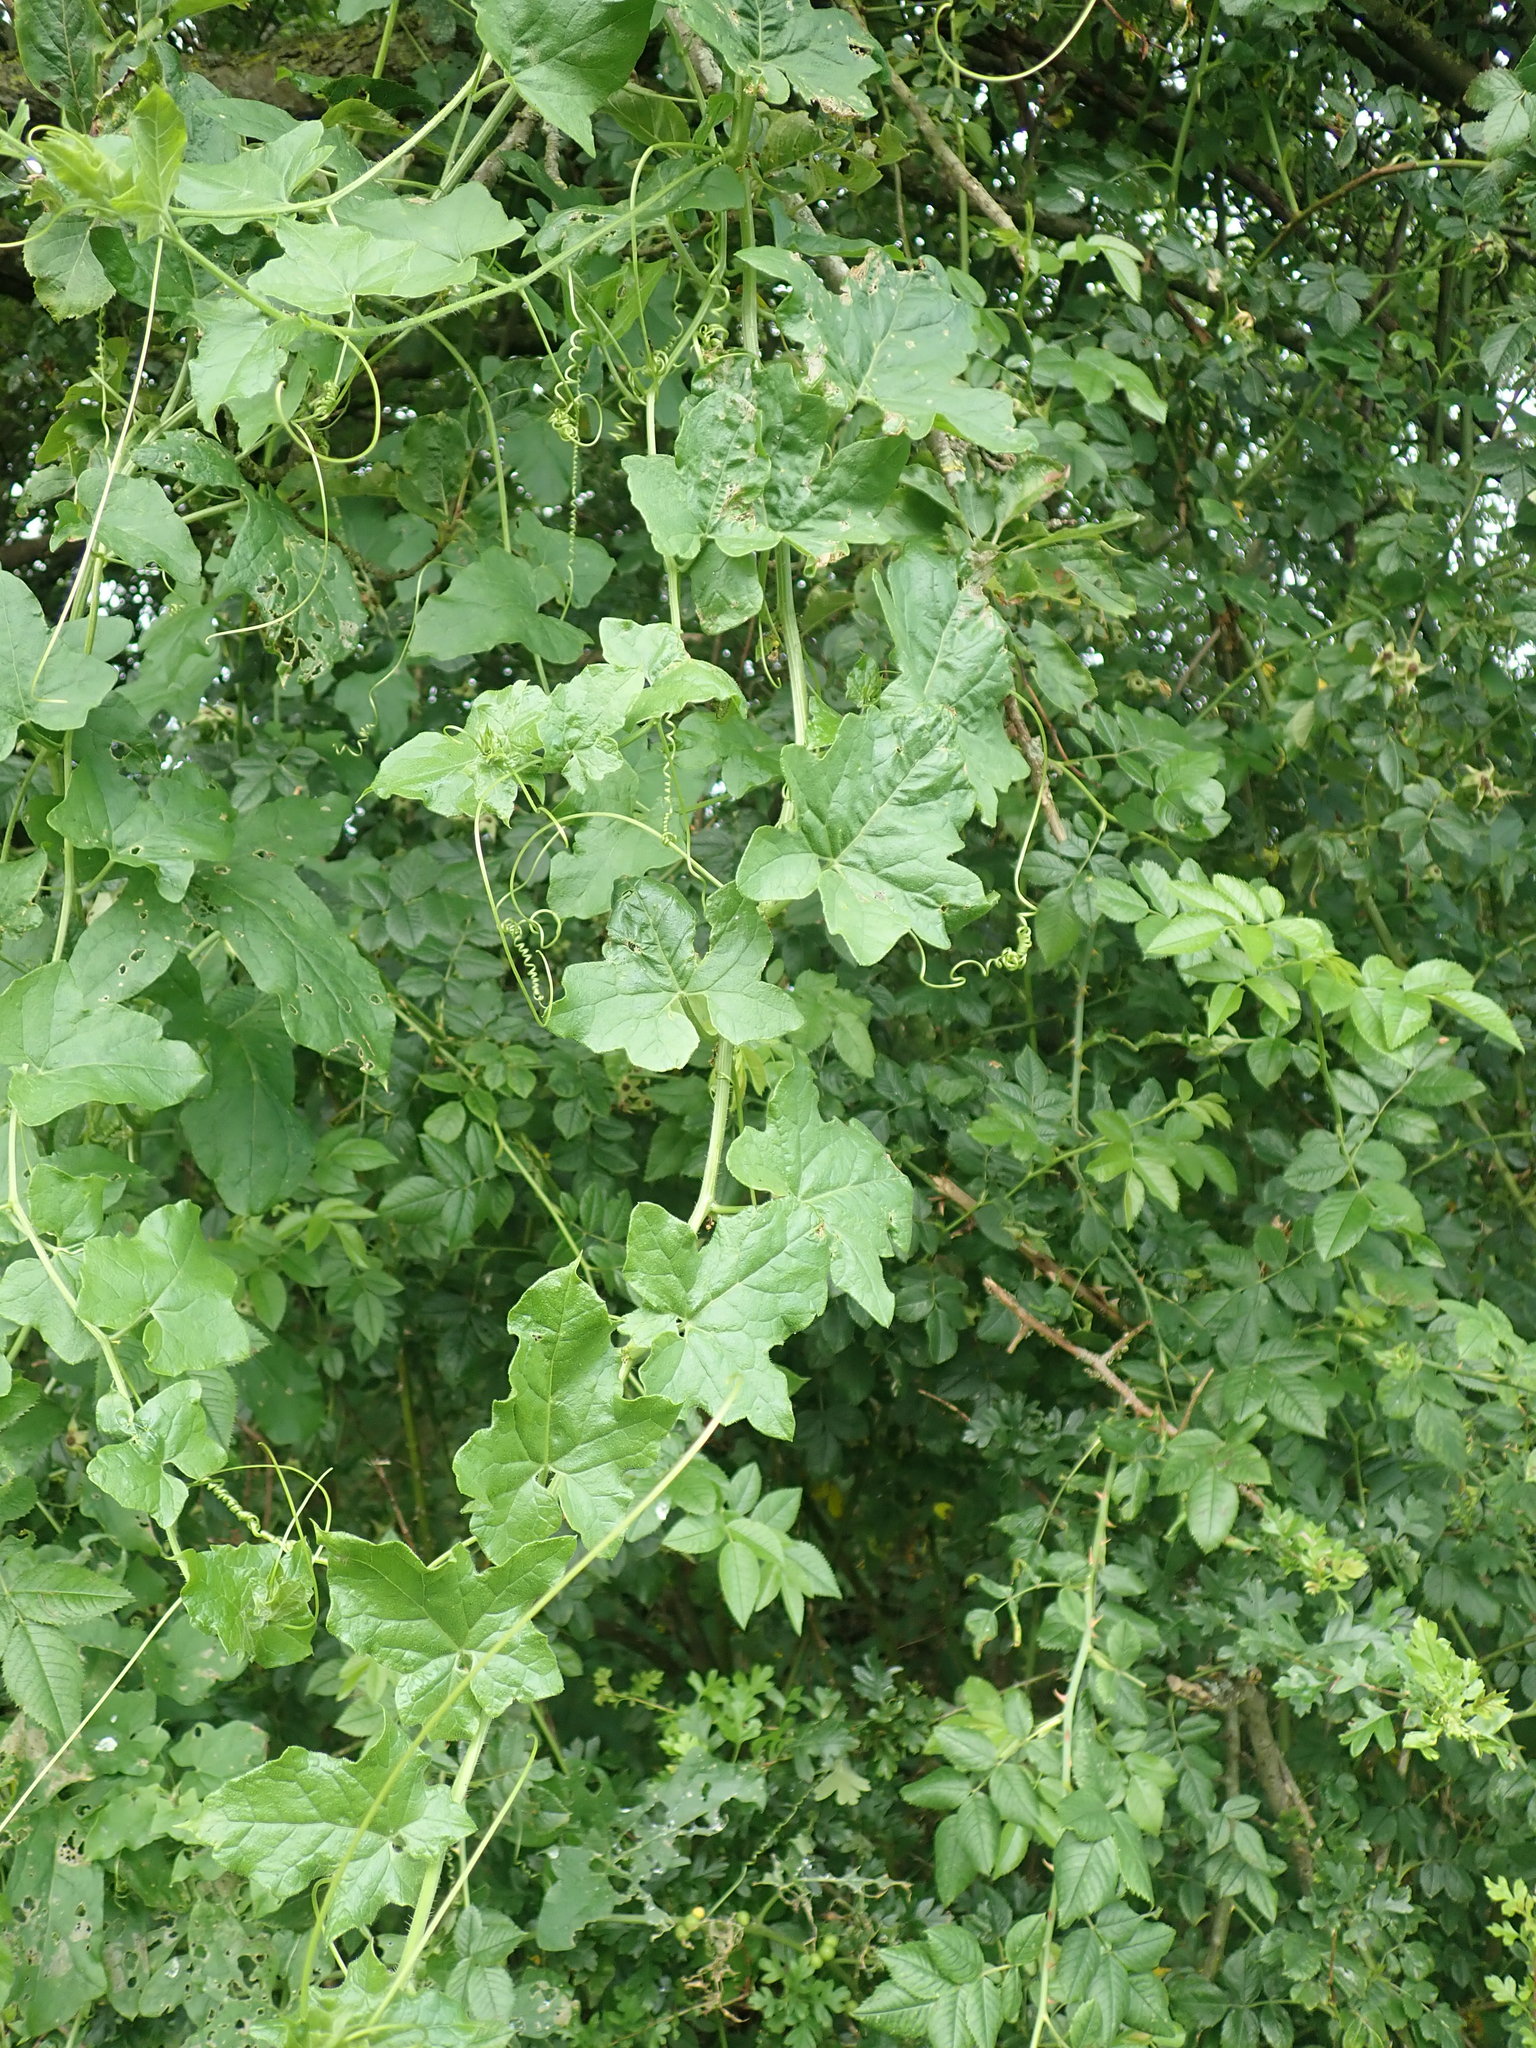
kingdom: Plantae
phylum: Tracheophyta
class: Magnoliopsida
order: Cucurbitales
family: Cucurbitaceae
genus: Bryonia
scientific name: Bryonia cretica
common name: Cretan bryony
